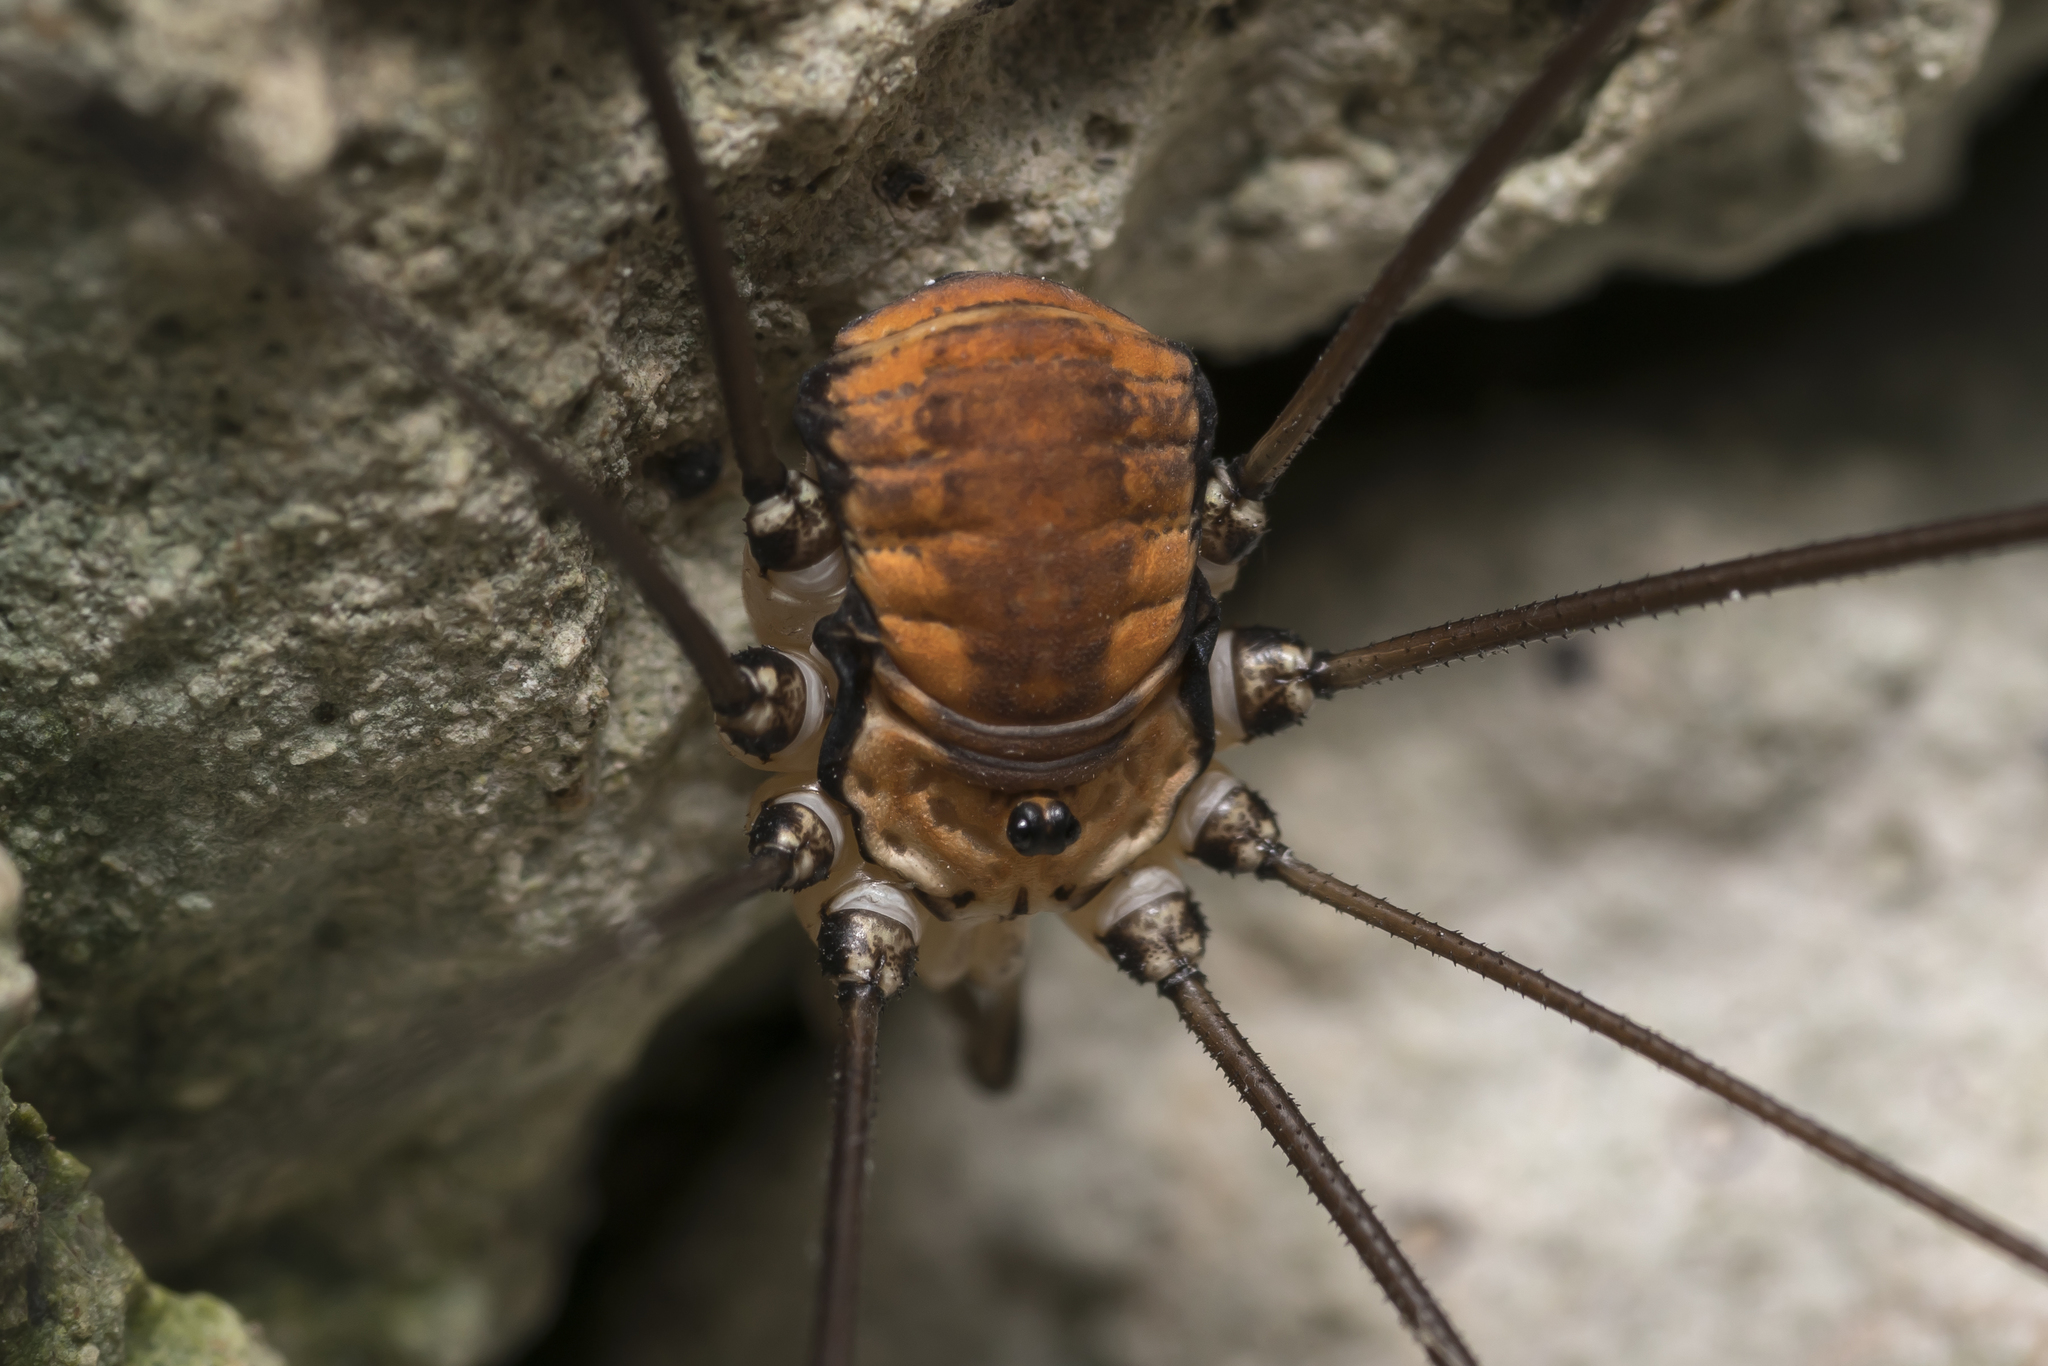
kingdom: Animalia
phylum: Arthropoda
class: Arachnida
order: Opiliones
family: Sclerosomatidae
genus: Leiobunum
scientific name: Leiobunum limbatum
